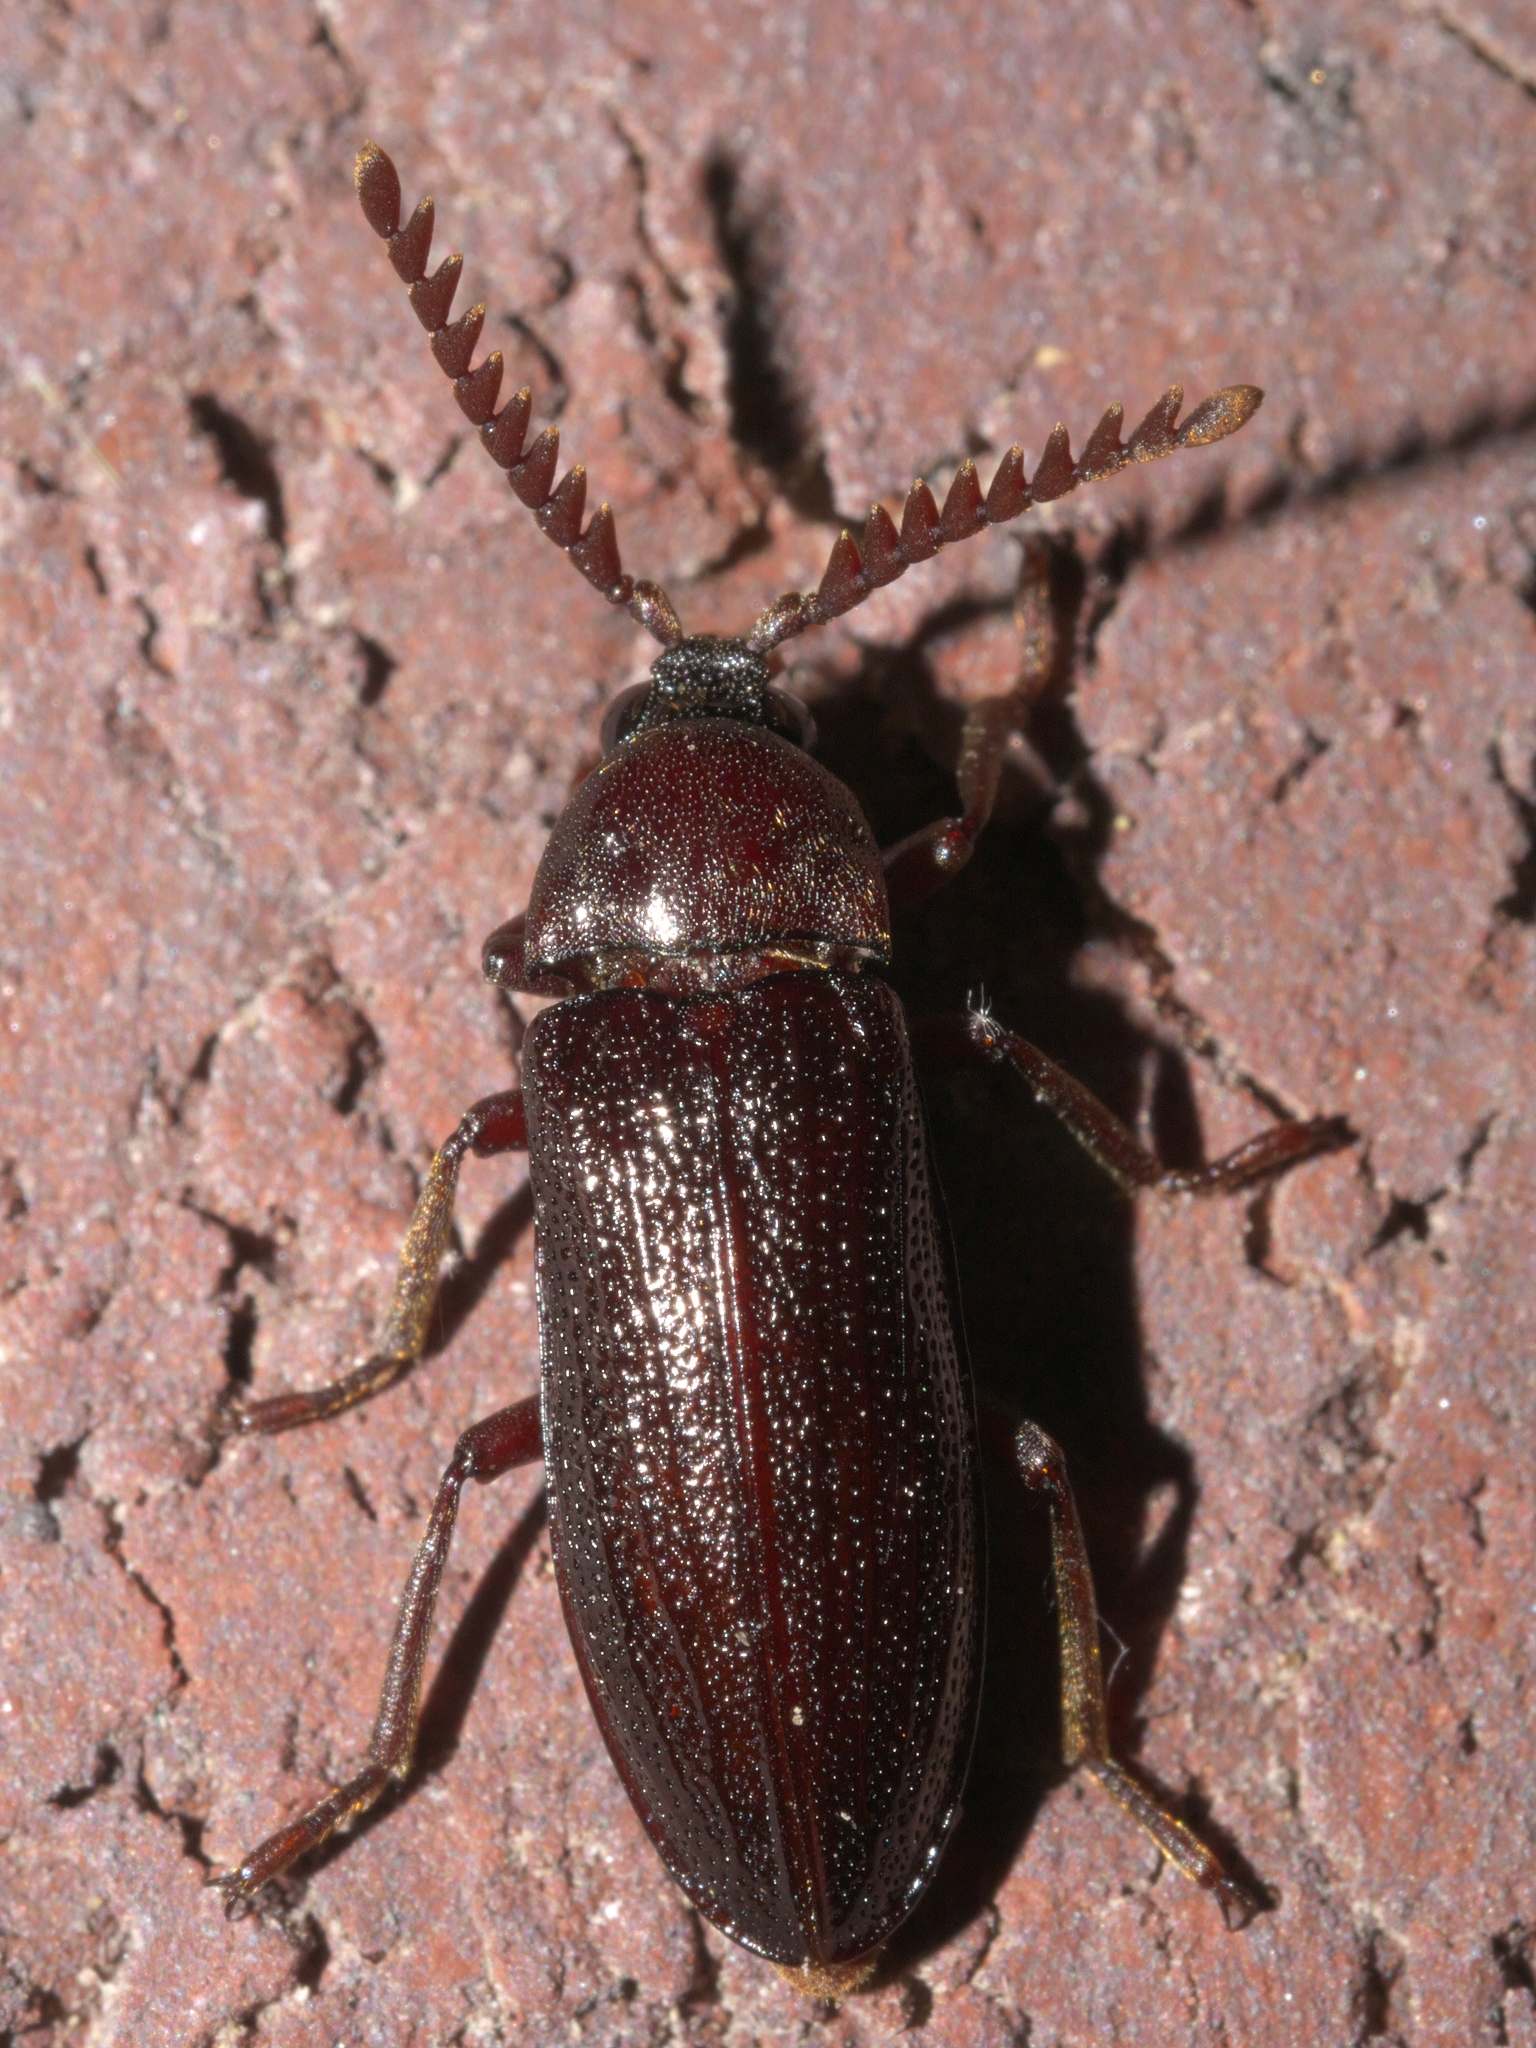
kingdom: Animalia
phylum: Arthropoda
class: Insecta
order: Coleoptera
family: Callirhipidae
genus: Zenoa
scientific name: Zenoa picea
